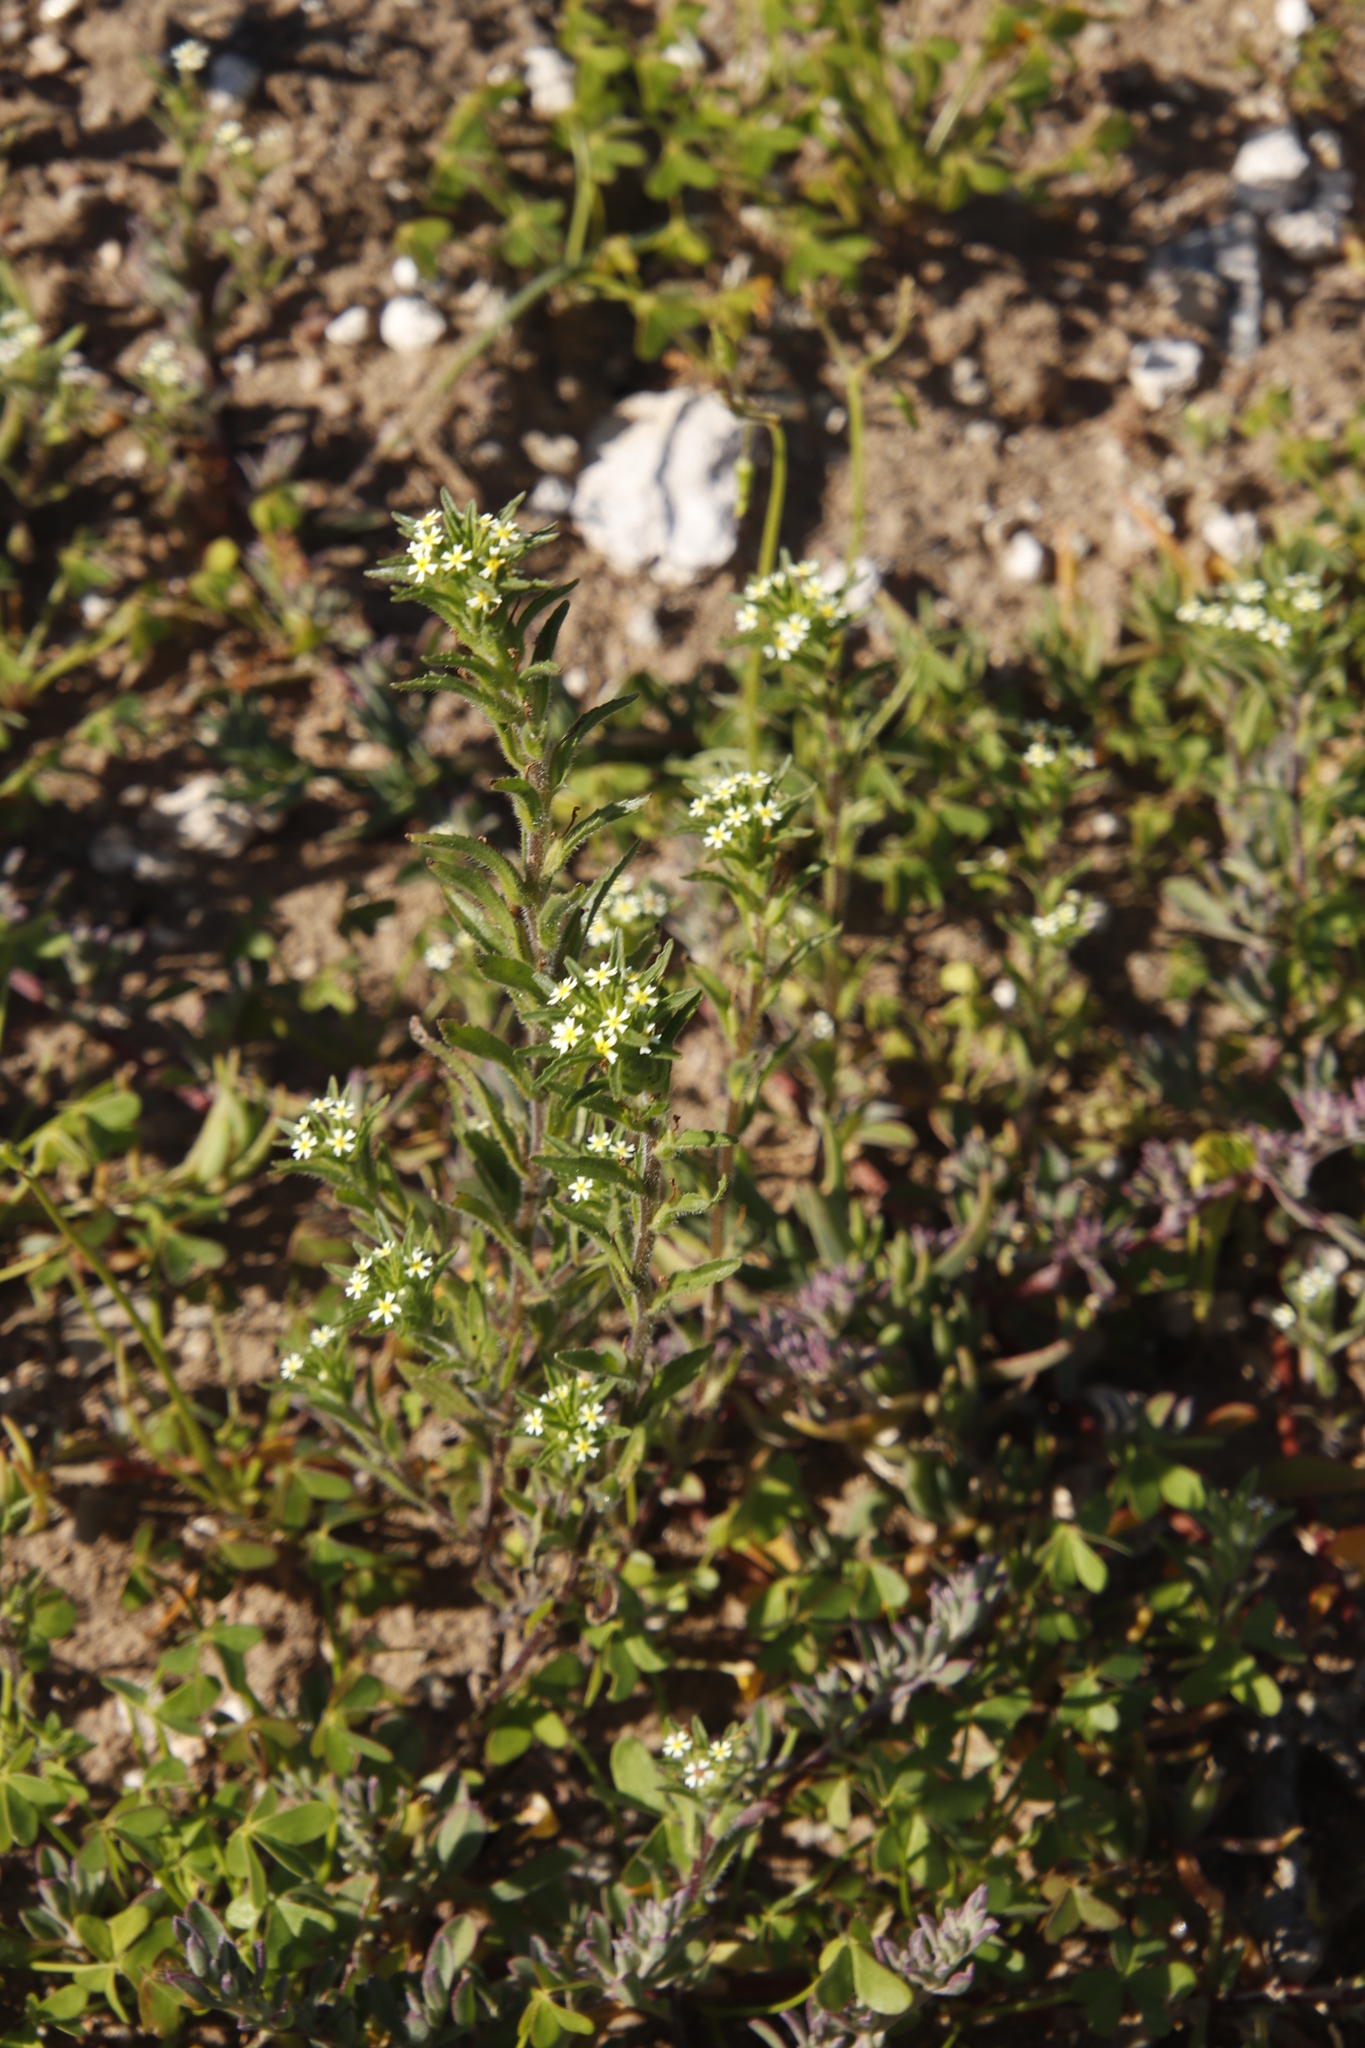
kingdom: Plantae
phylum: Tracheophyta
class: Magnoliopsida
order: Lamiales
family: Scrophulariaceae
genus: Zaluzianskya
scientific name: Zaluzianskya parviflora
